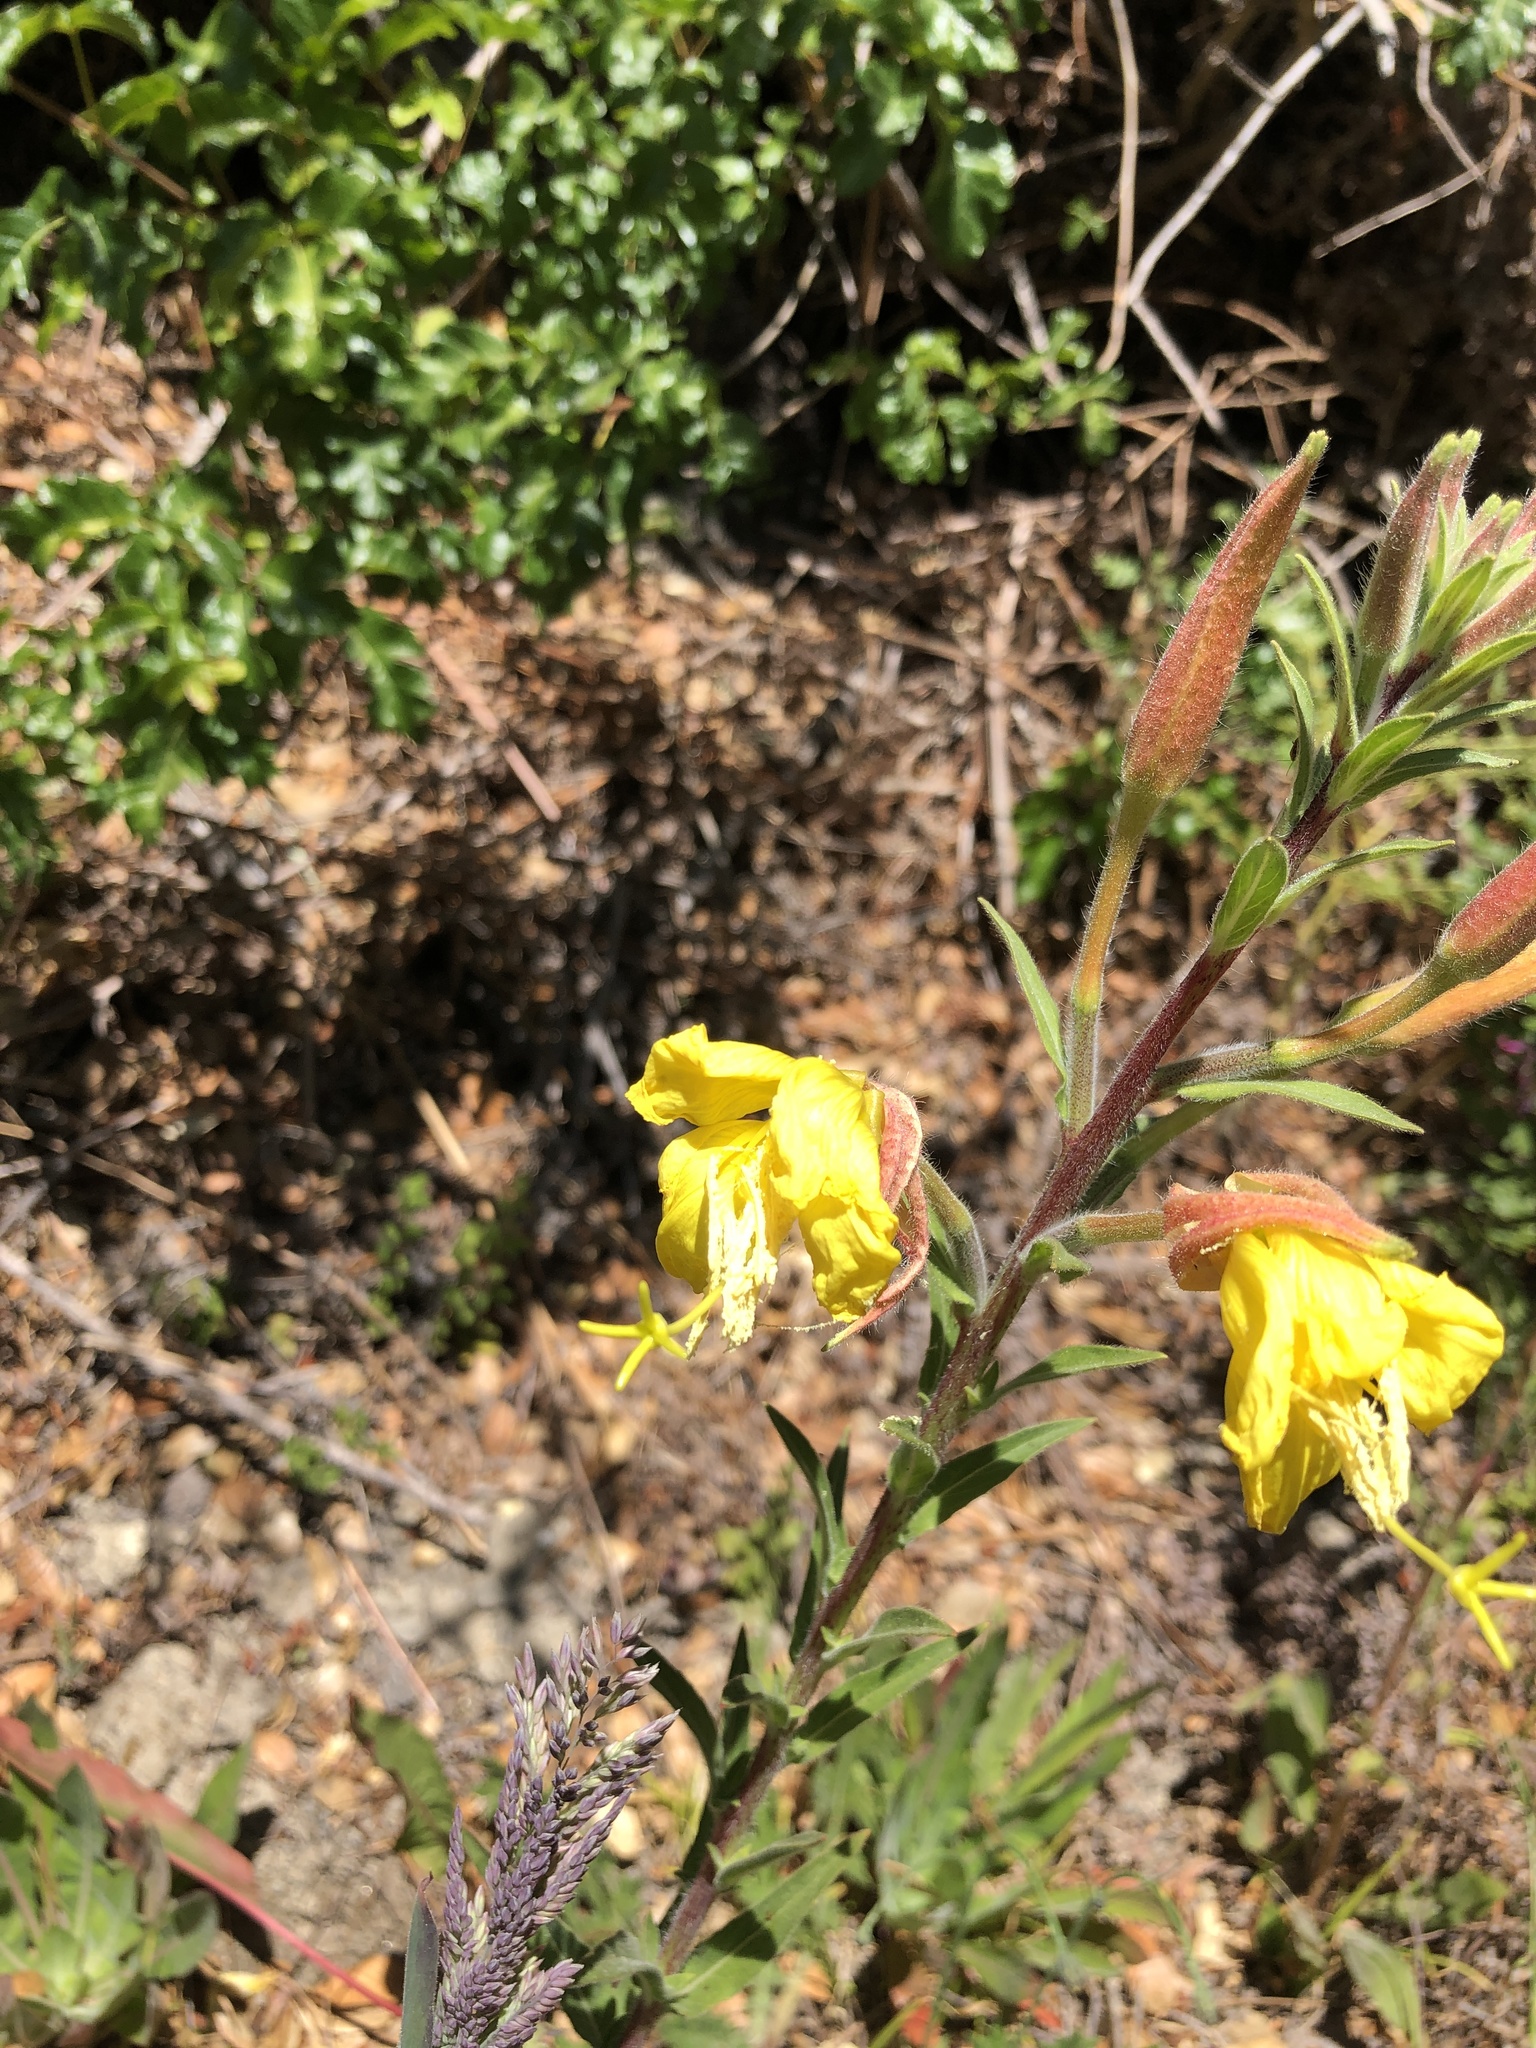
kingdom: Plantae
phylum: Tracheophyta
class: Magnoliopsida
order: Myrtales
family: Onagraceae
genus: Oenothera
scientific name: Oenothera elata
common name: Hooker's evening-primrose
